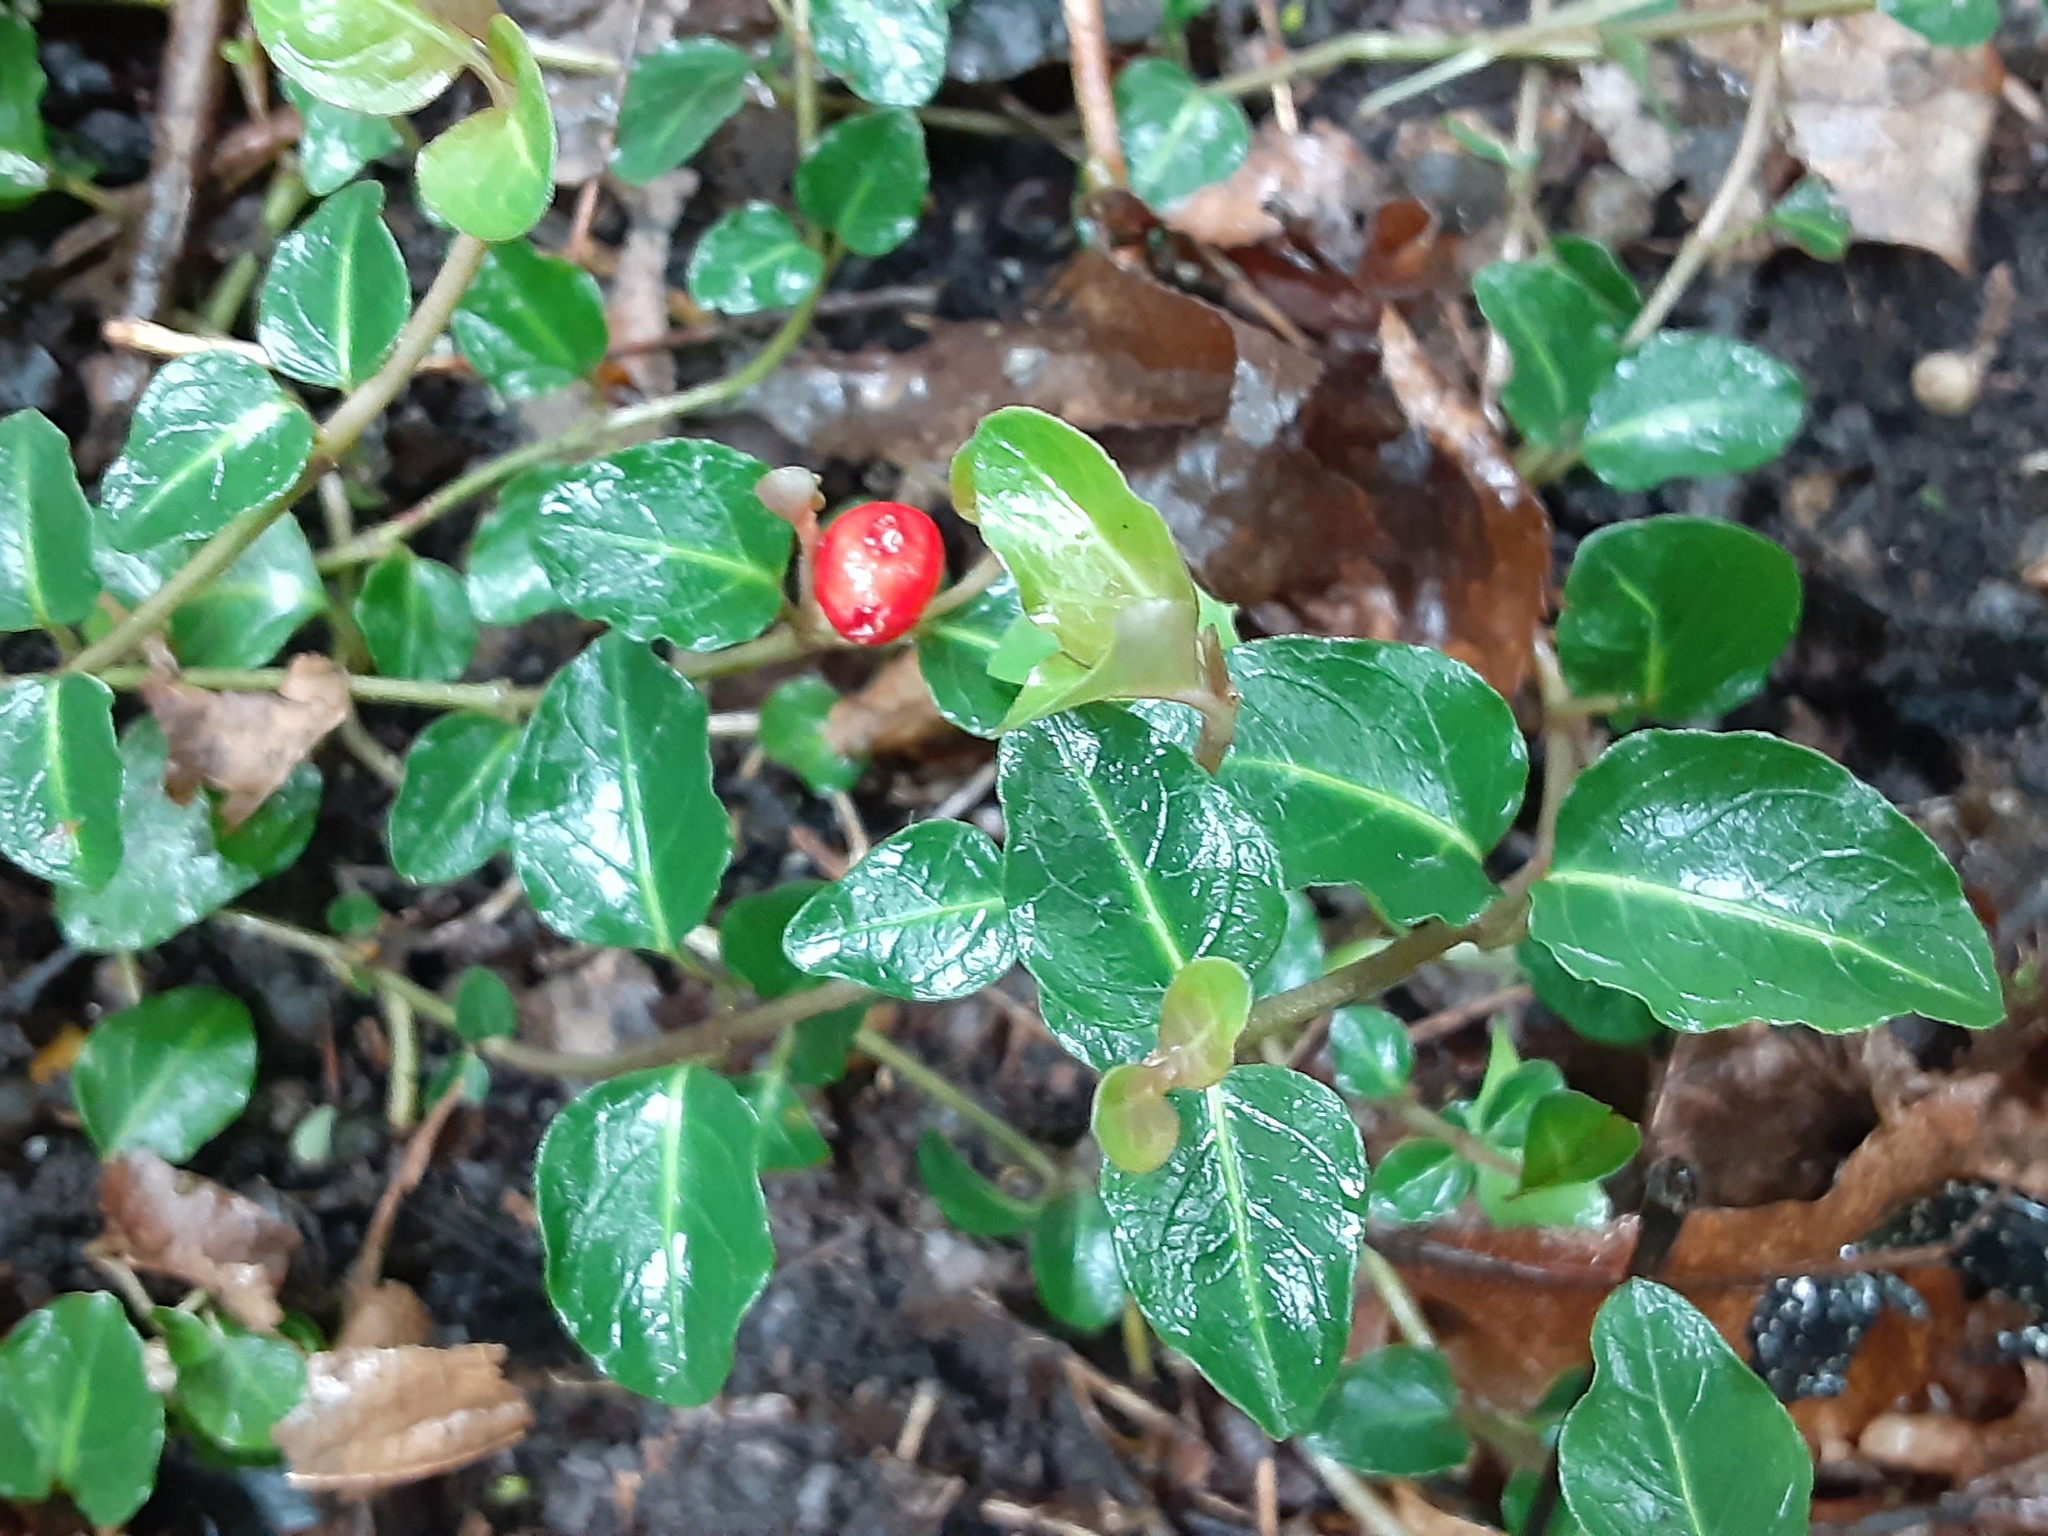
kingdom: Plantae
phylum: Tracheophyta
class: Magnoliopsida
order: Gentianales
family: Rubiaceae
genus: Mitchella
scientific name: Mitchella repens
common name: Partridge-berry
